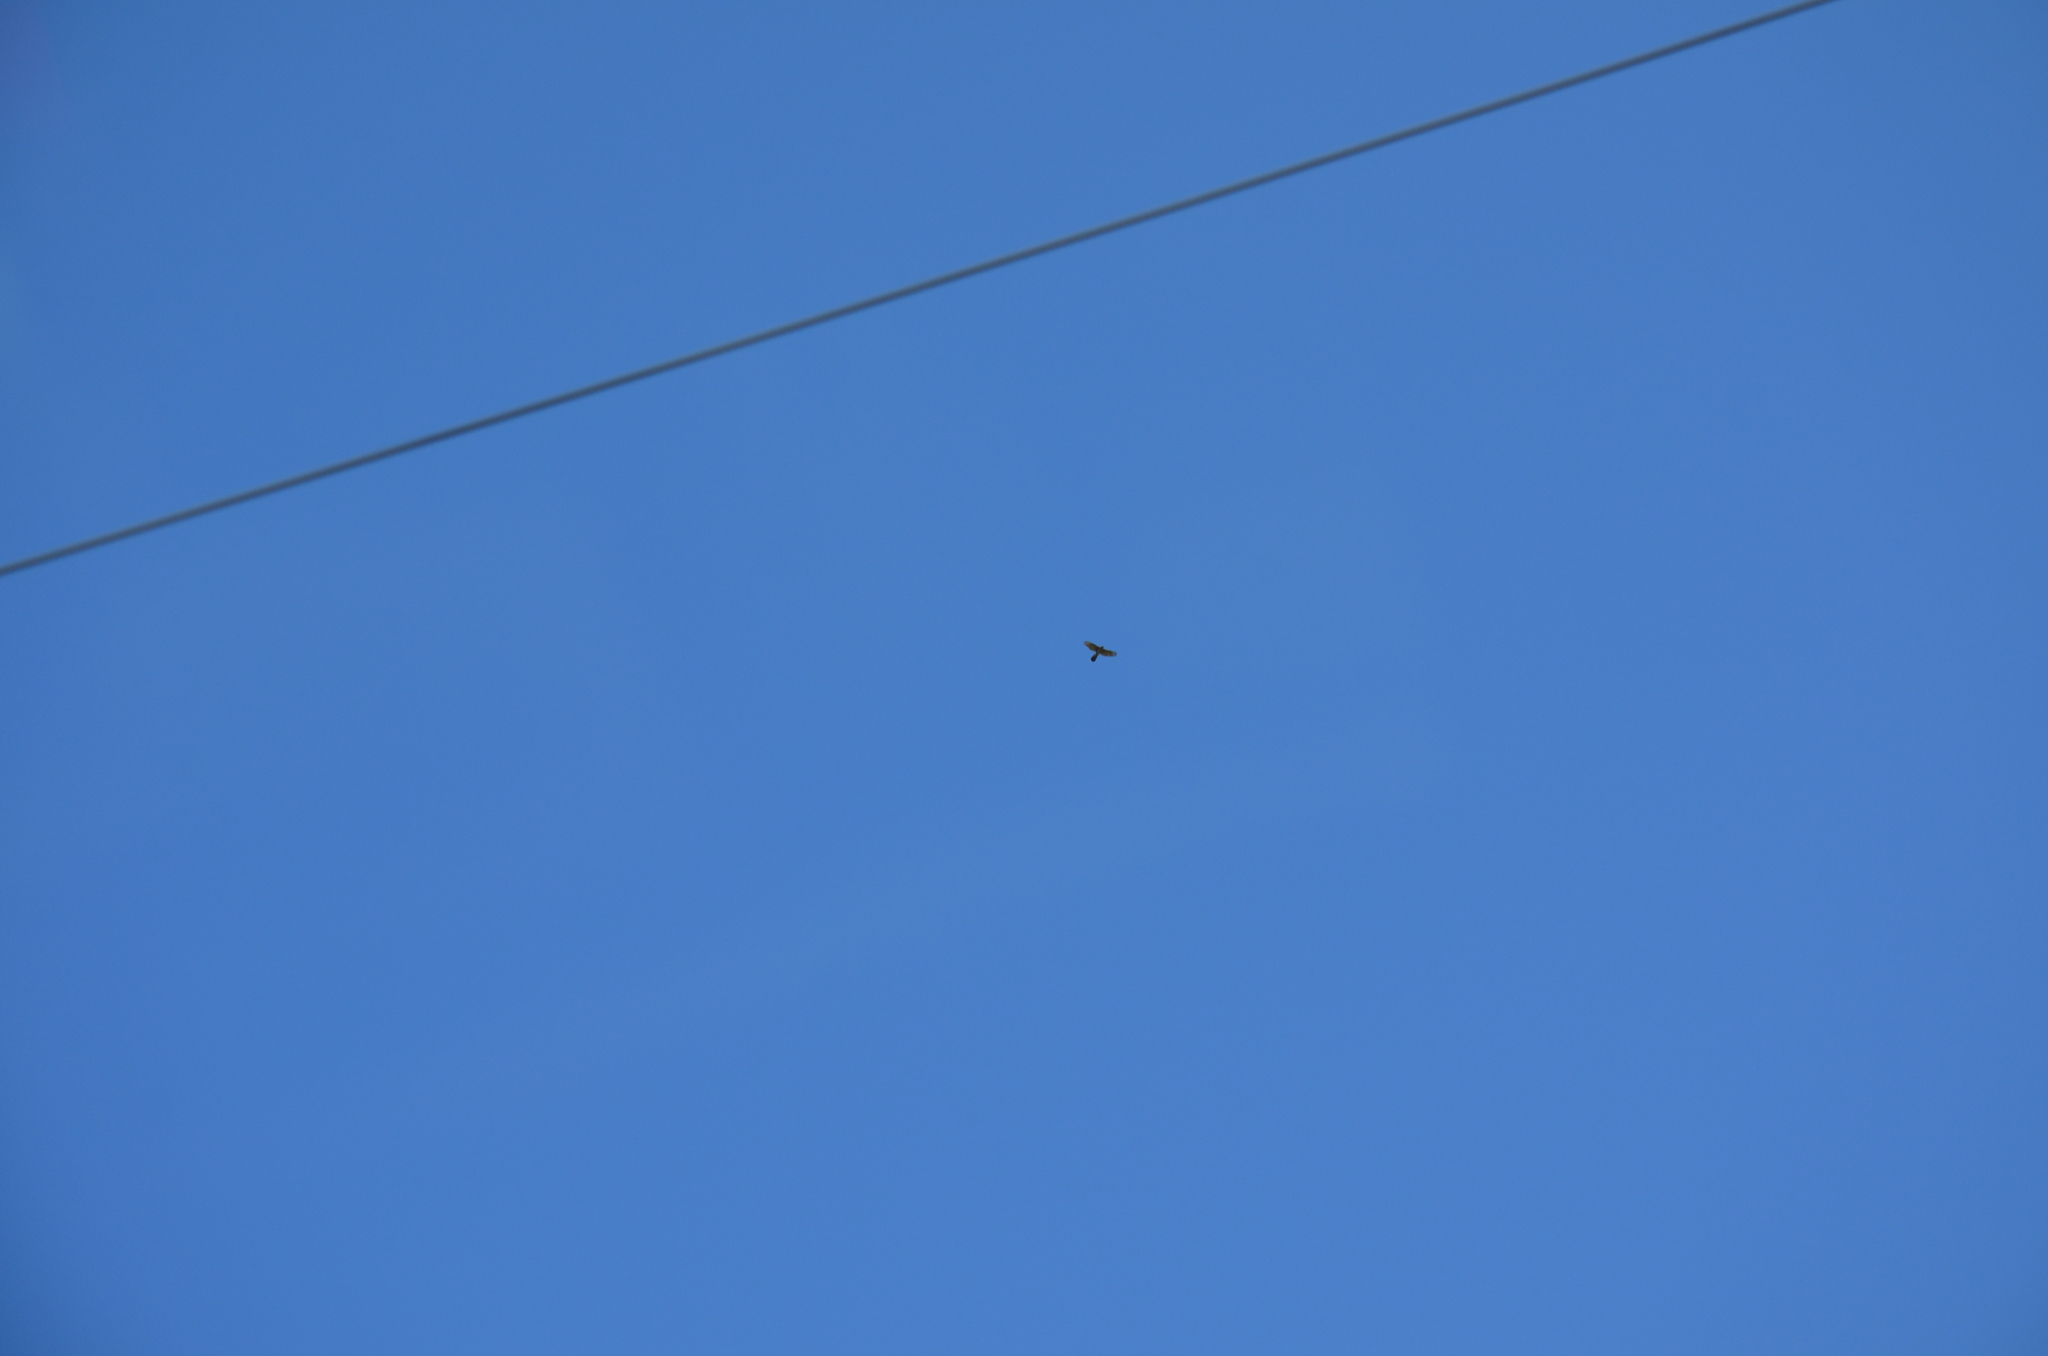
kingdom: Animalia
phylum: Chordata
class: Aves
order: Accipitriformes
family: Accipitridae
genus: Accipiter
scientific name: Accipiter cooperii
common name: Cooper's hawk
